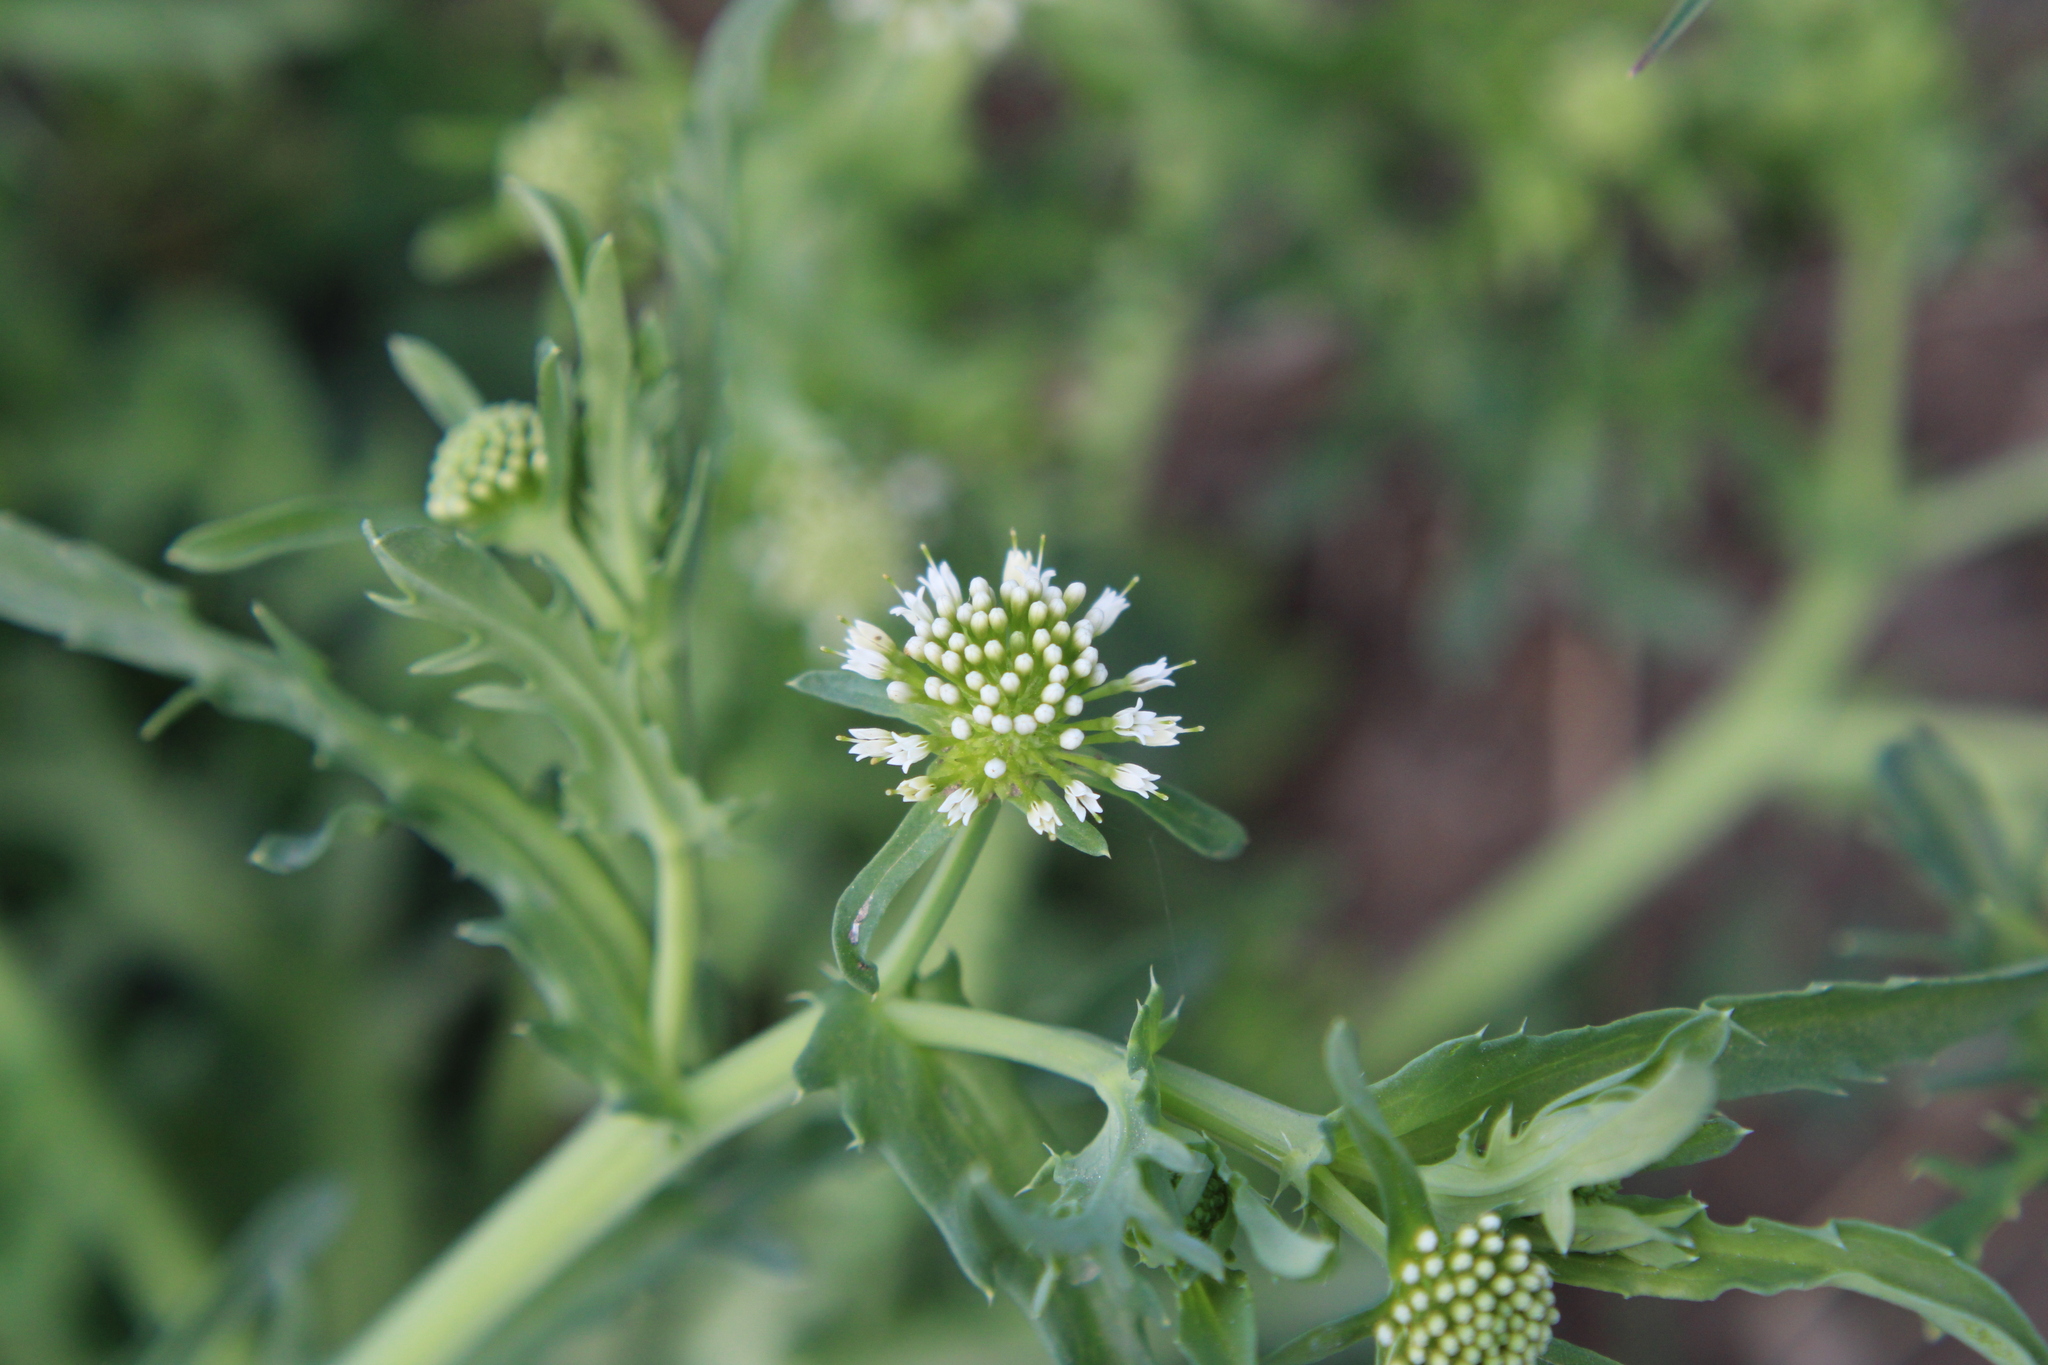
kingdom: Plantae
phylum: Tracheophyta
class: Magnoliopsida
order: Asterales
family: Calyceraceae
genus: Acicarpha
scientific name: Acicarpha tribuloides
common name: Madam gorgon
